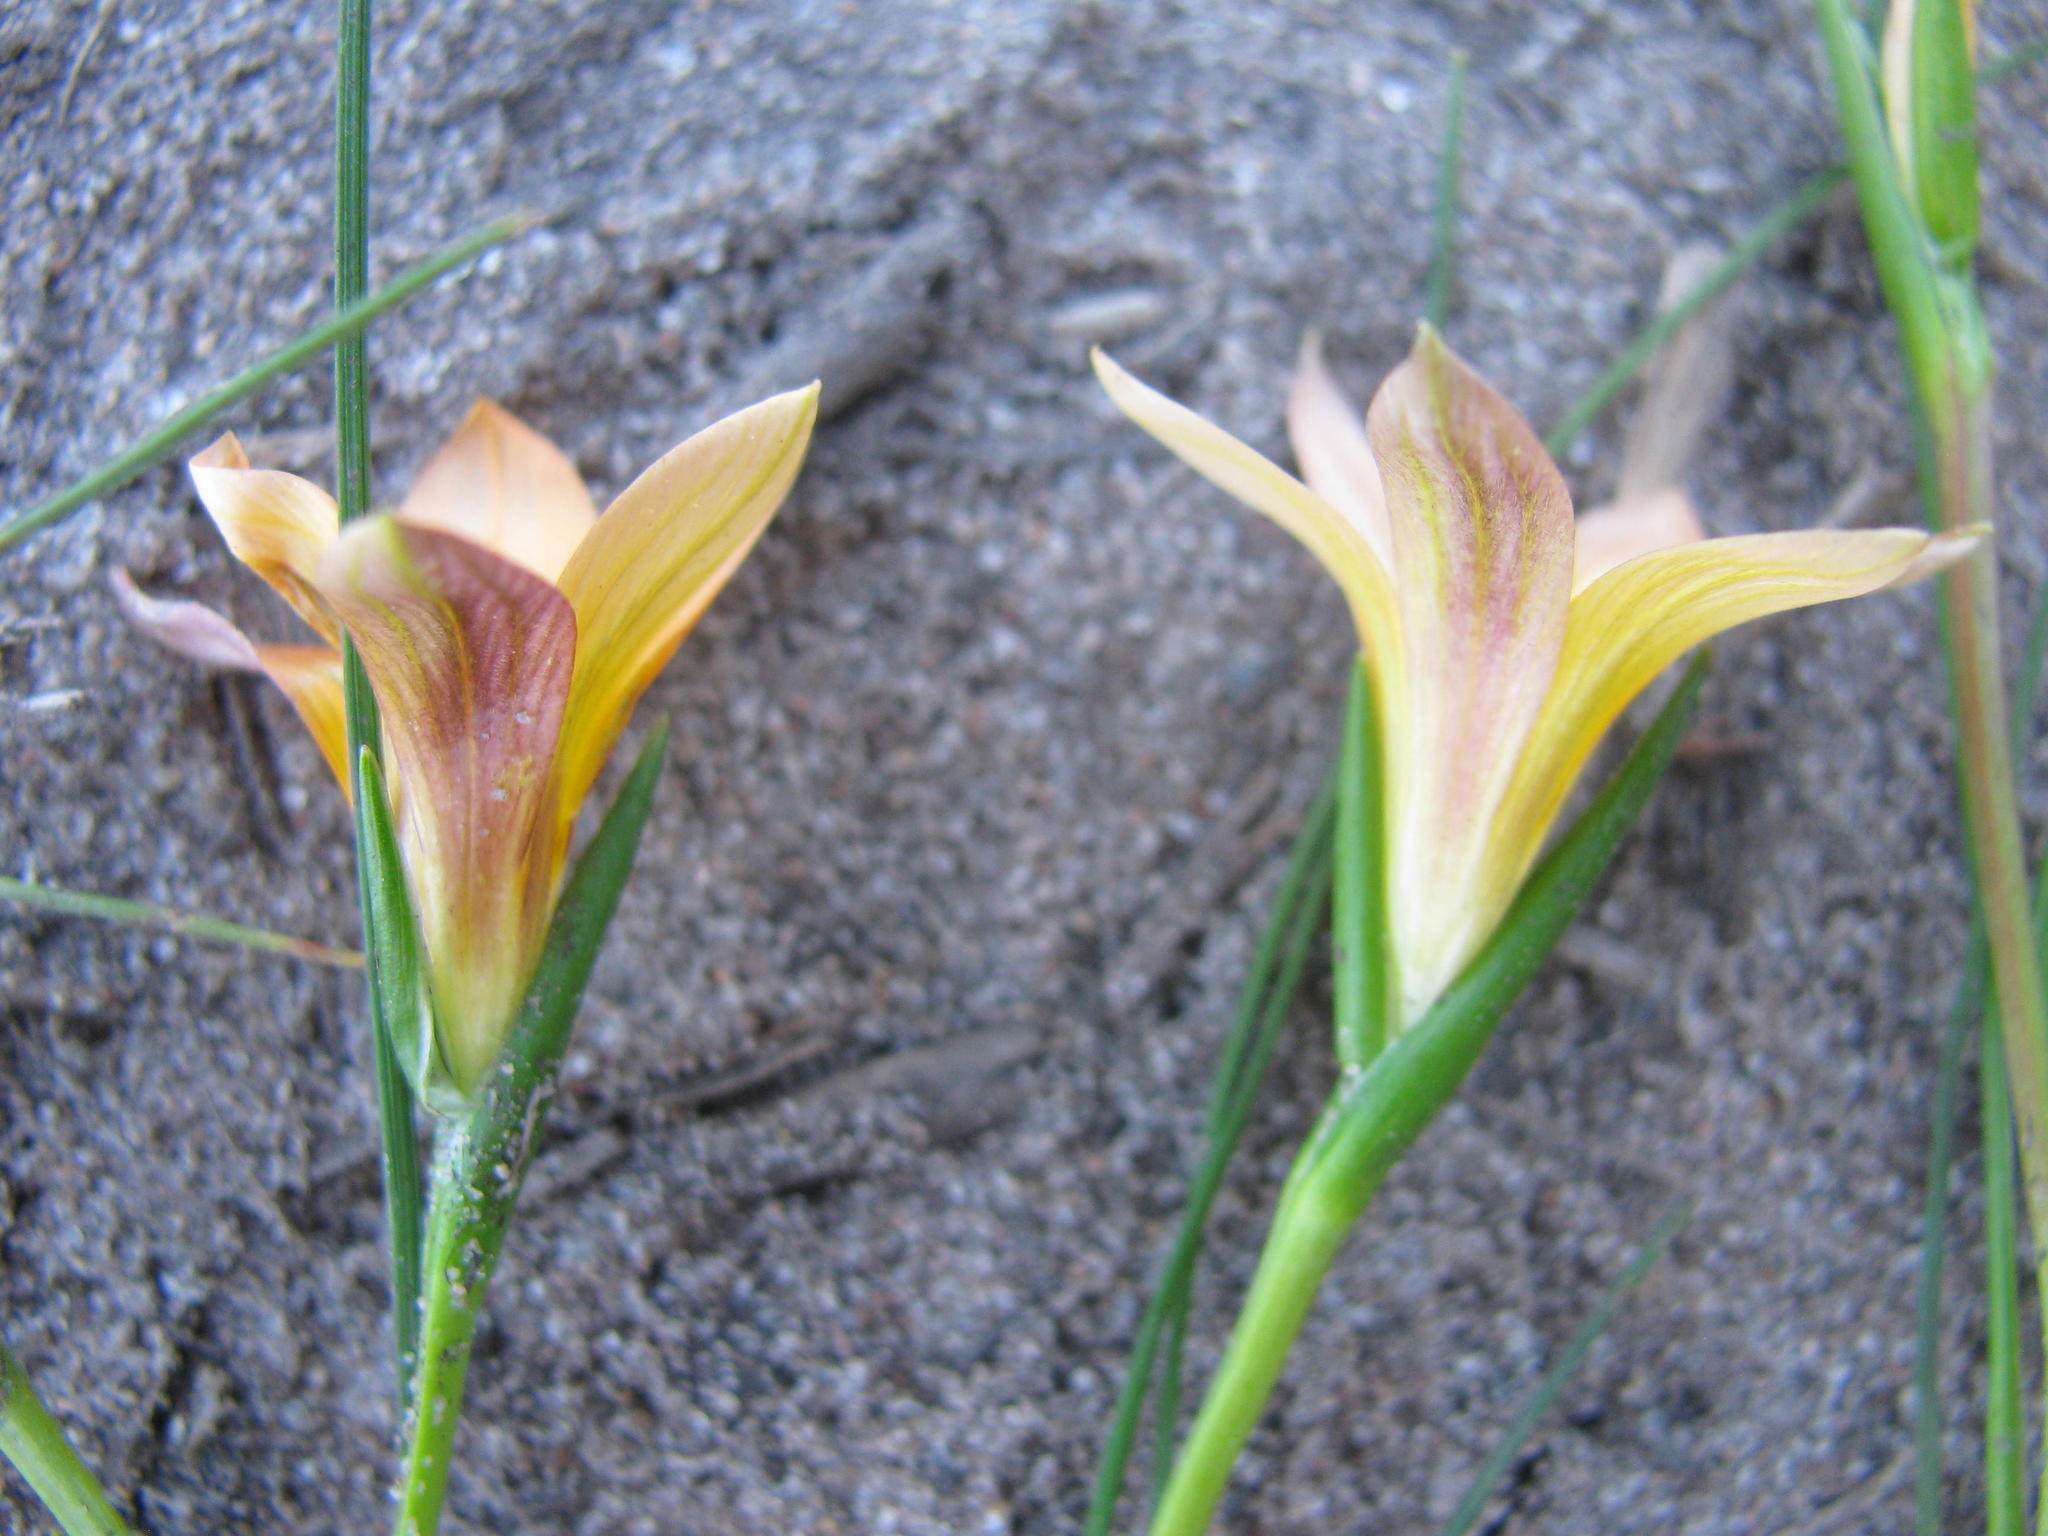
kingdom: Plantae
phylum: Tracheophyta
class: Liliopsida
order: Asparagales
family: Iridaceae
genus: Romulea
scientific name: Romulea setifolia
